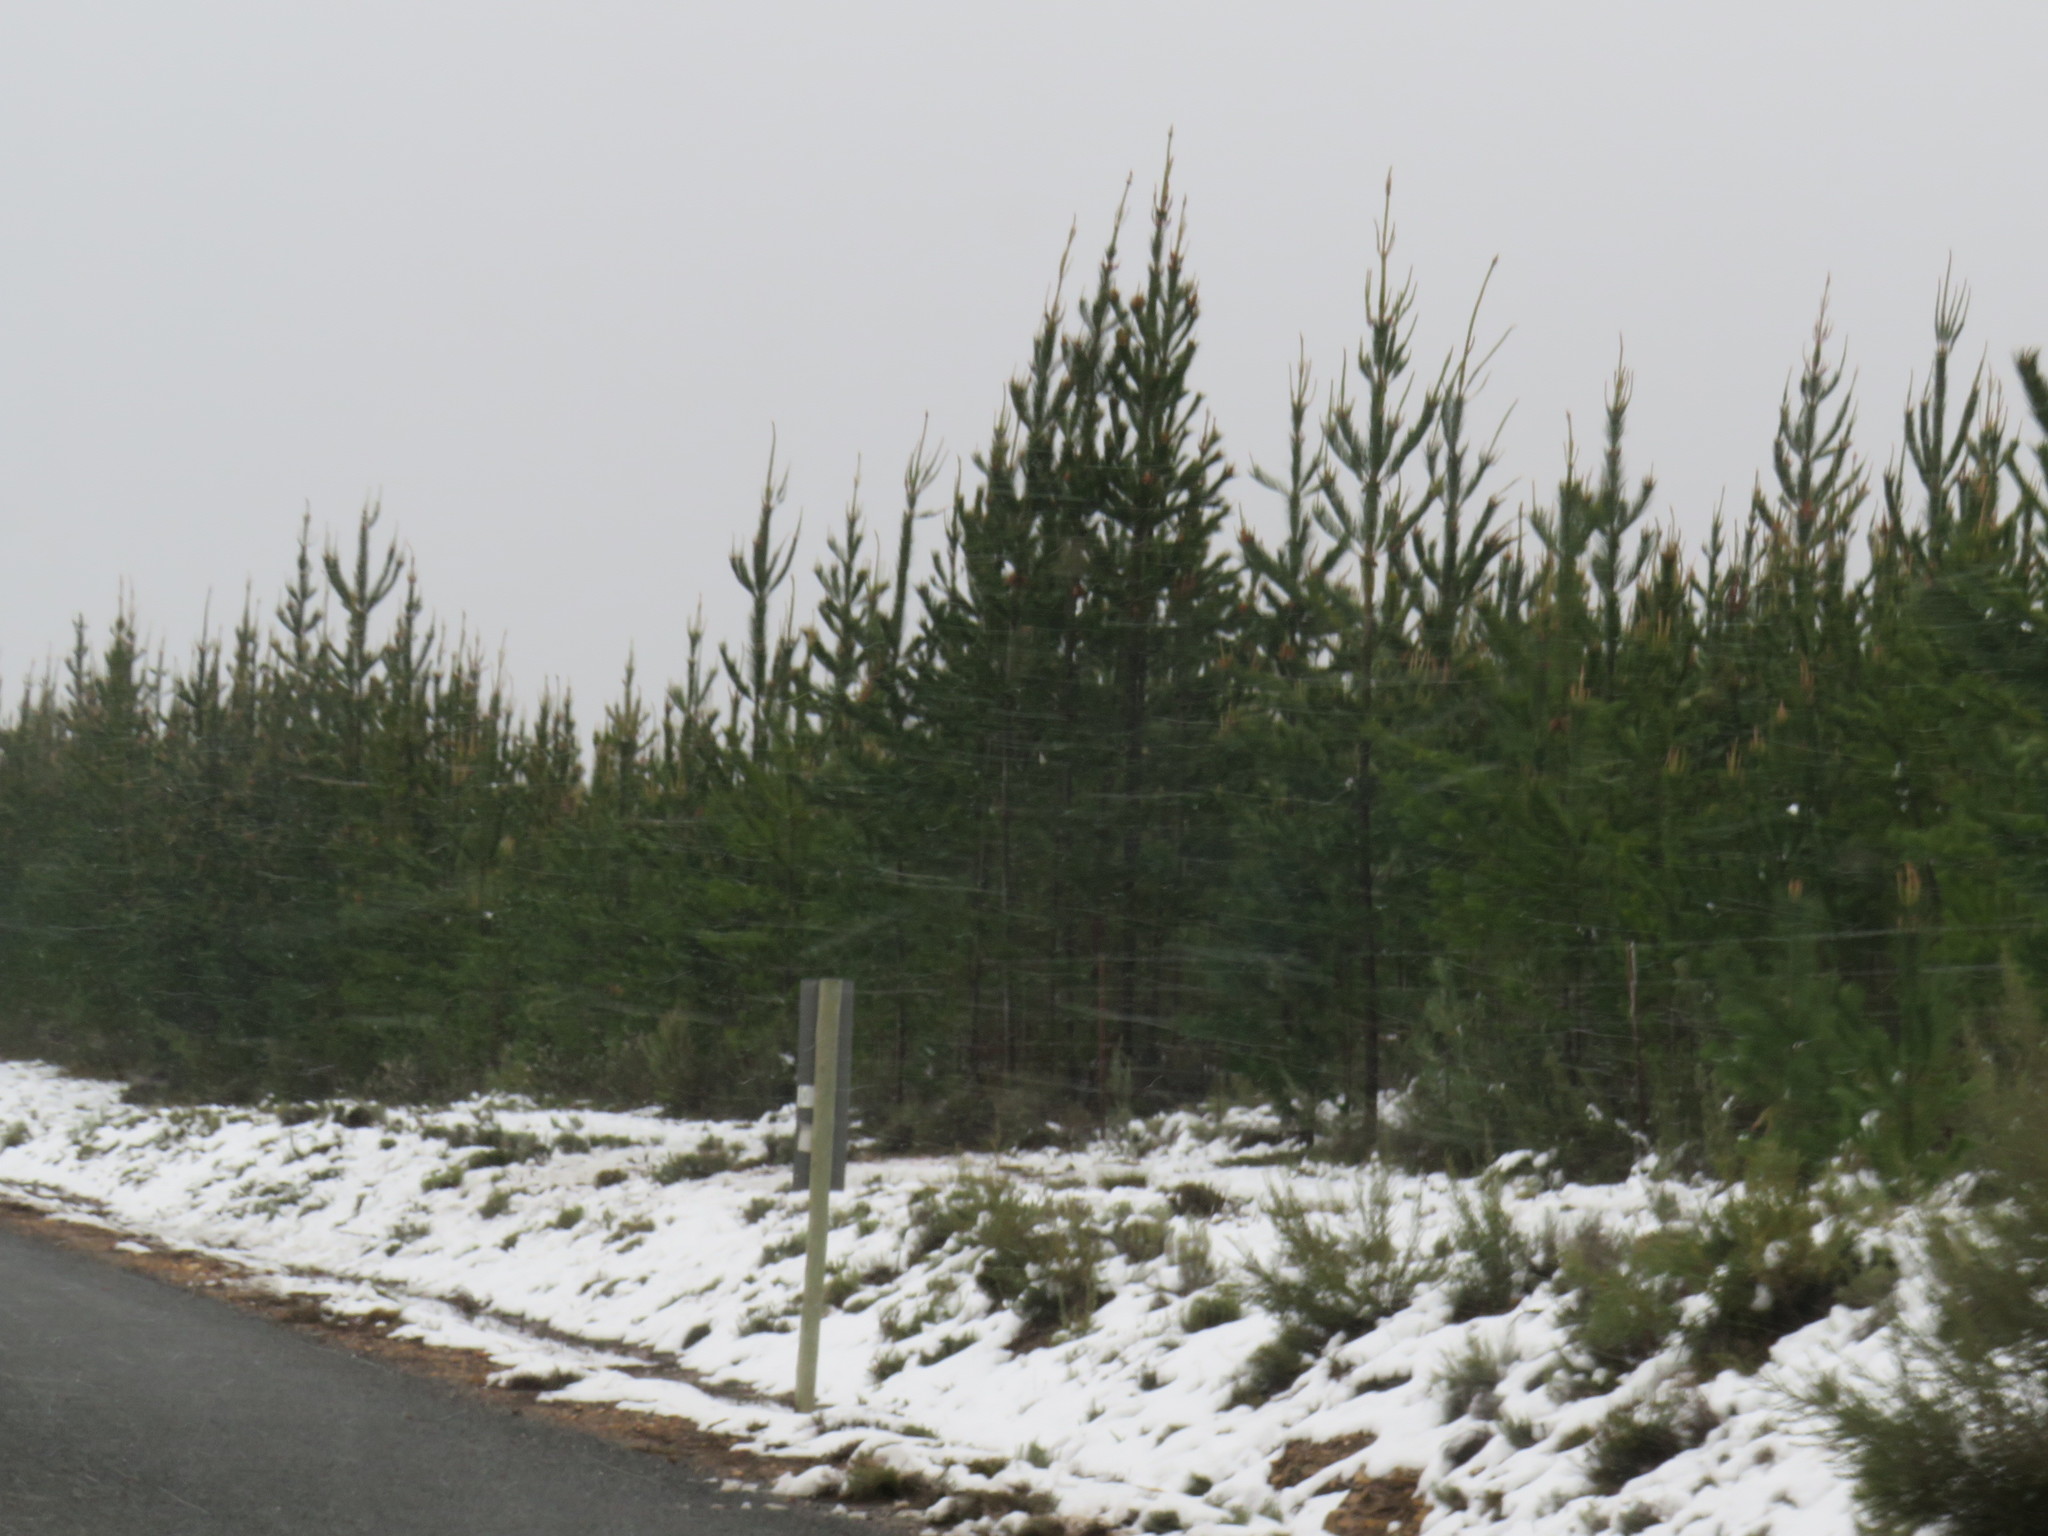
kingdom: Plantae
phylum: Tracheophyta
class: Pinopsida
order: Pinales
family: Pinaceae
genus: Pinus
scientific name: Pinus halepensis
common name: Aleppo pine
